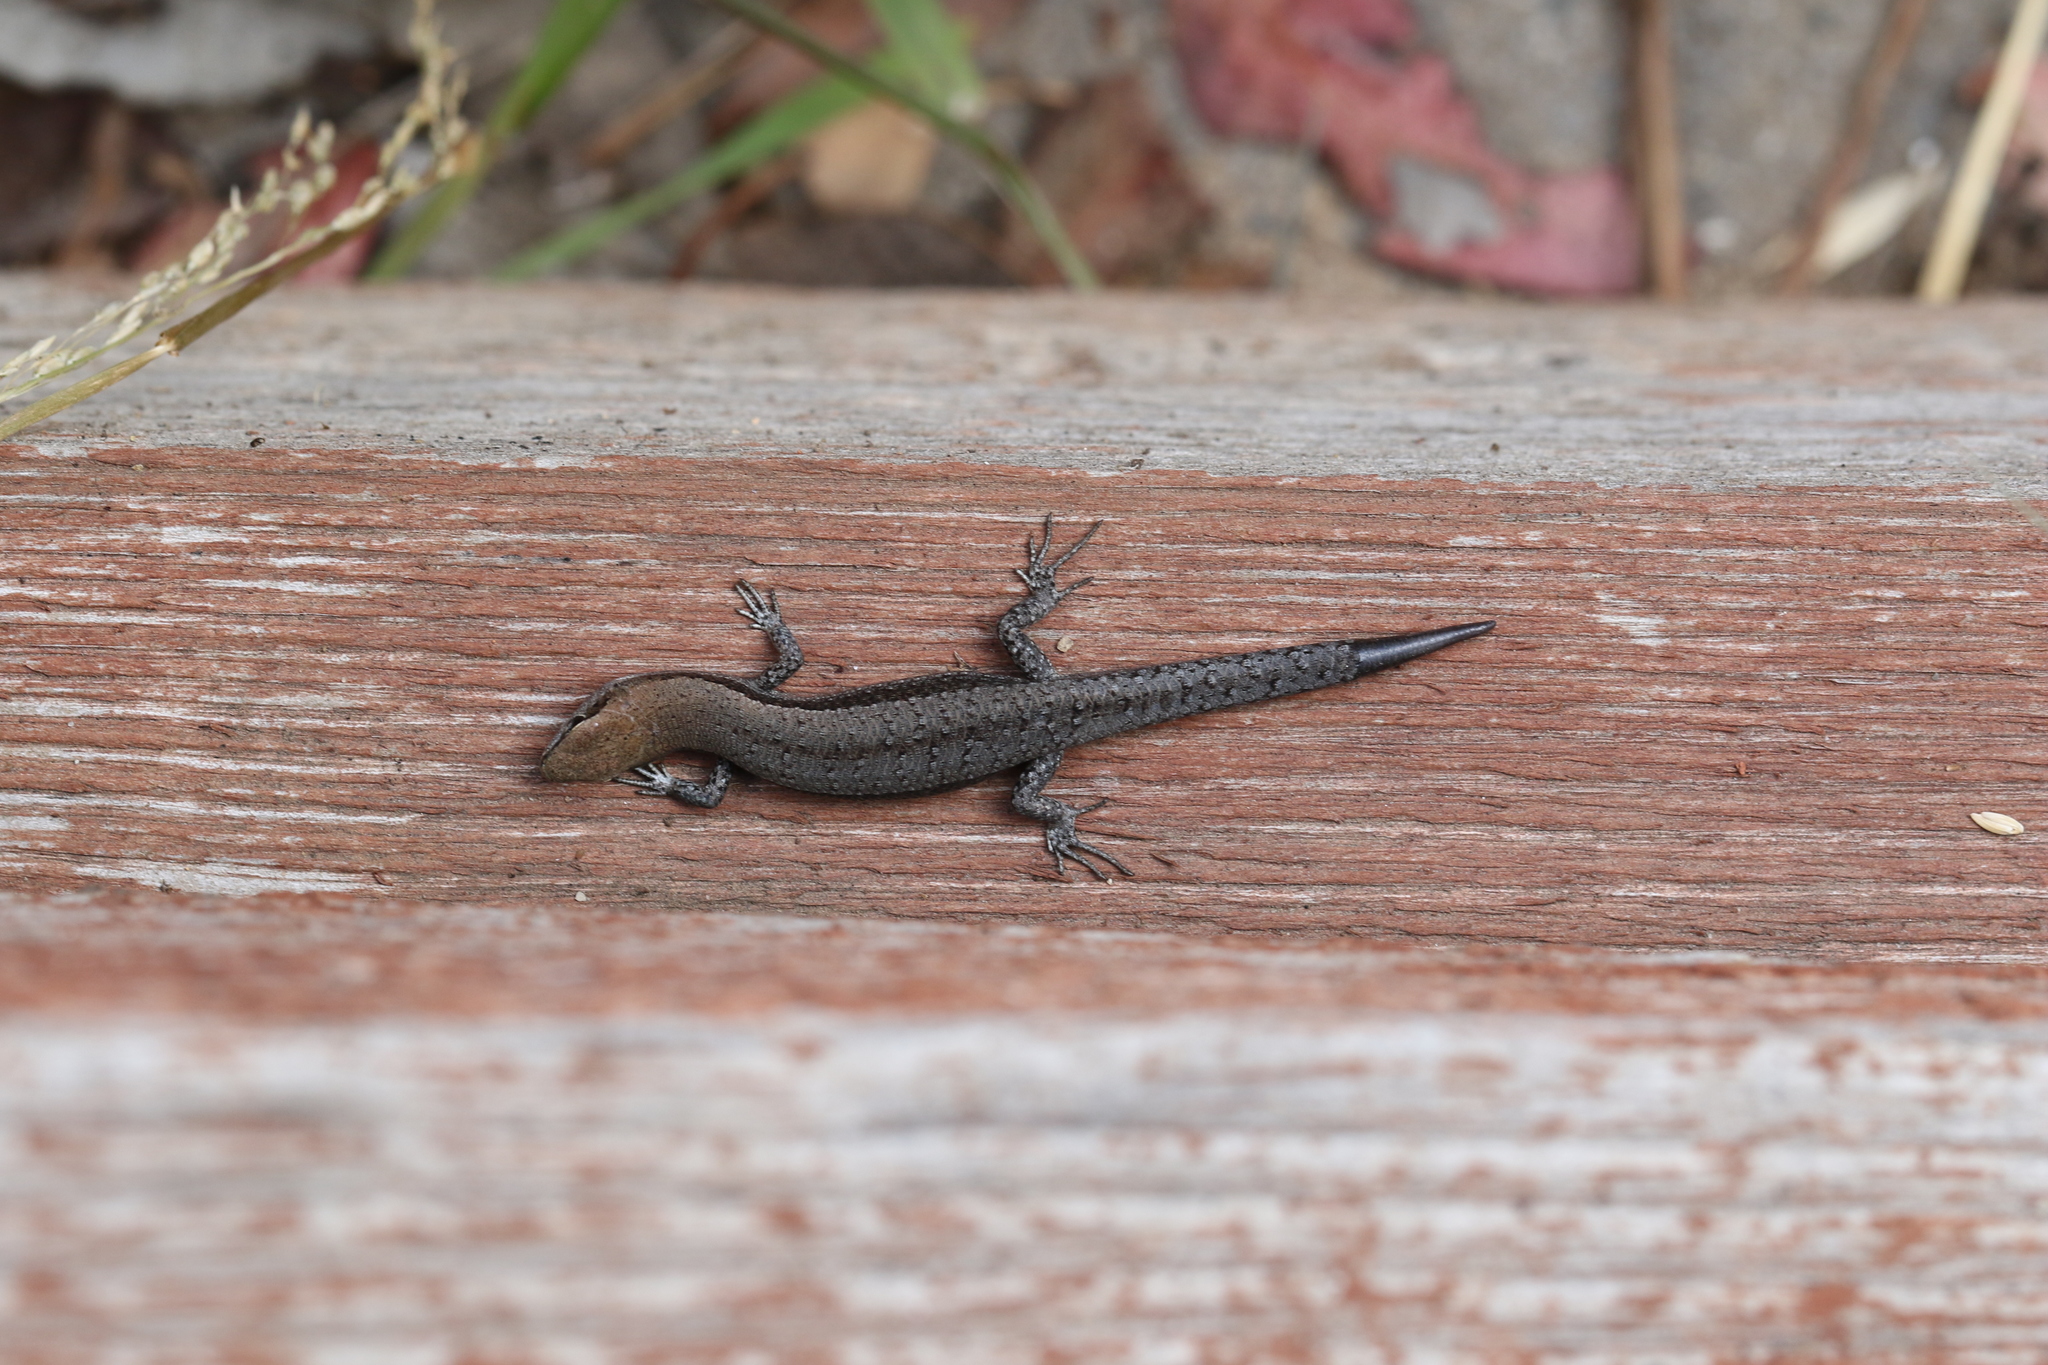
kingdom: Animalia
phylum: Chordata
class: Squamata
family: Scincidae
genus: Lampropholis
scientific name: Lampropholis guichenoti
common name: Garden skink
